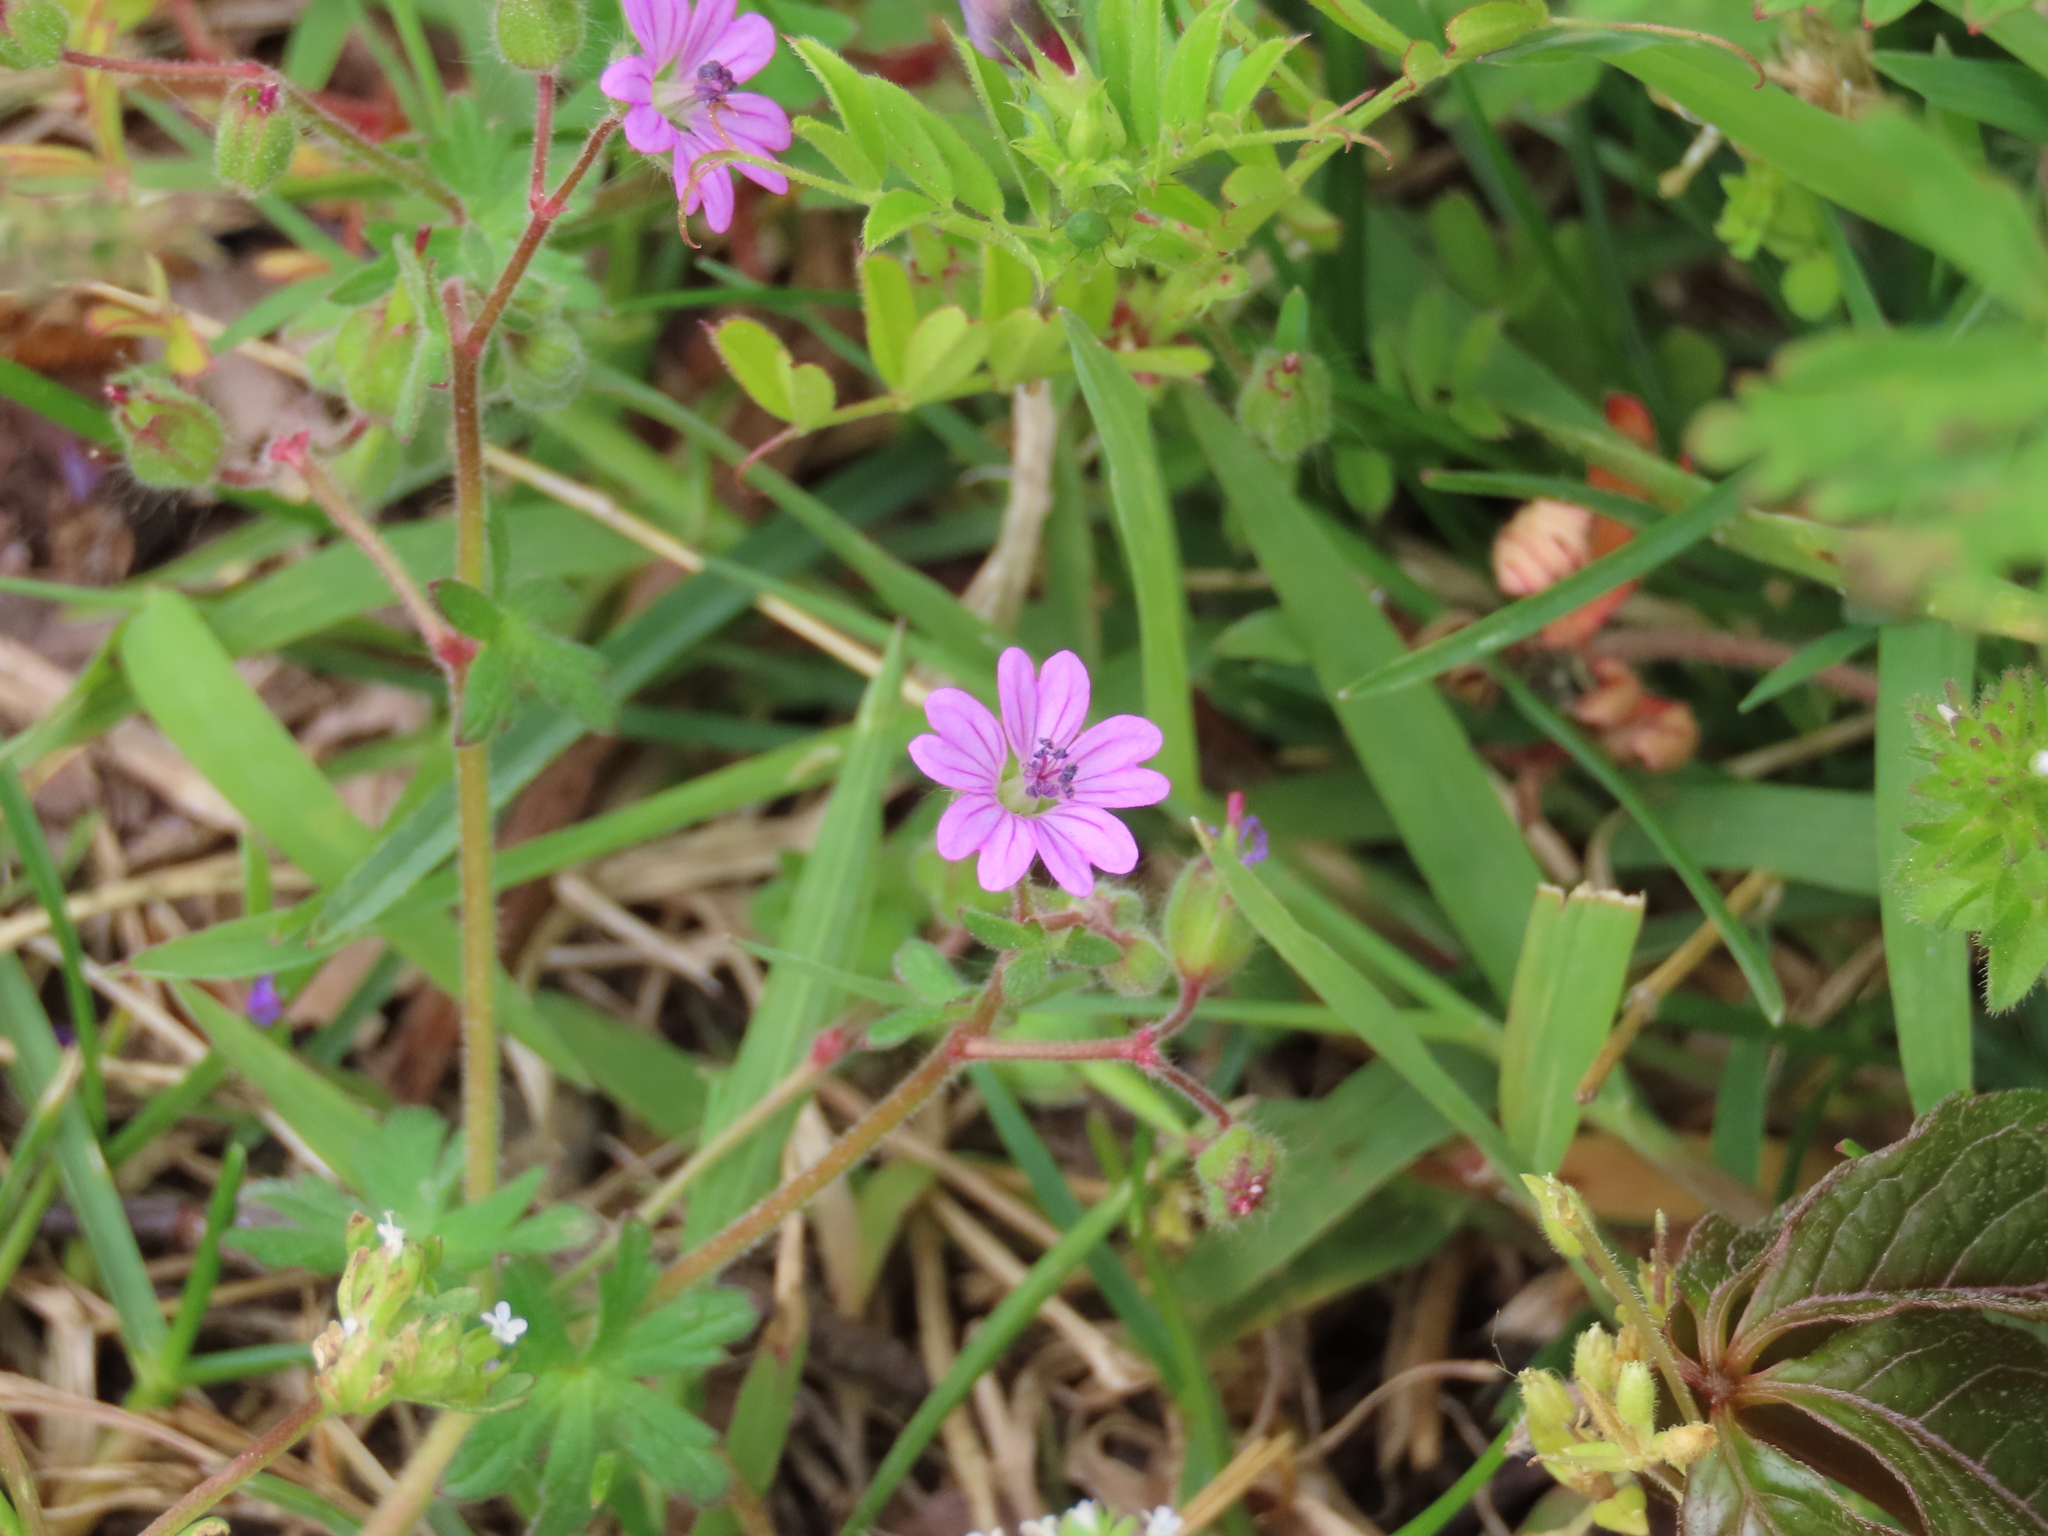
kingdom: Plantae
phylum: Tracheophyta
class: Magnoliopsida
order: Geraniales
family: Geraniaceae
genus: Geranium
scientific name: Geranium molle
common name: Dove's-foot crane's-bill
